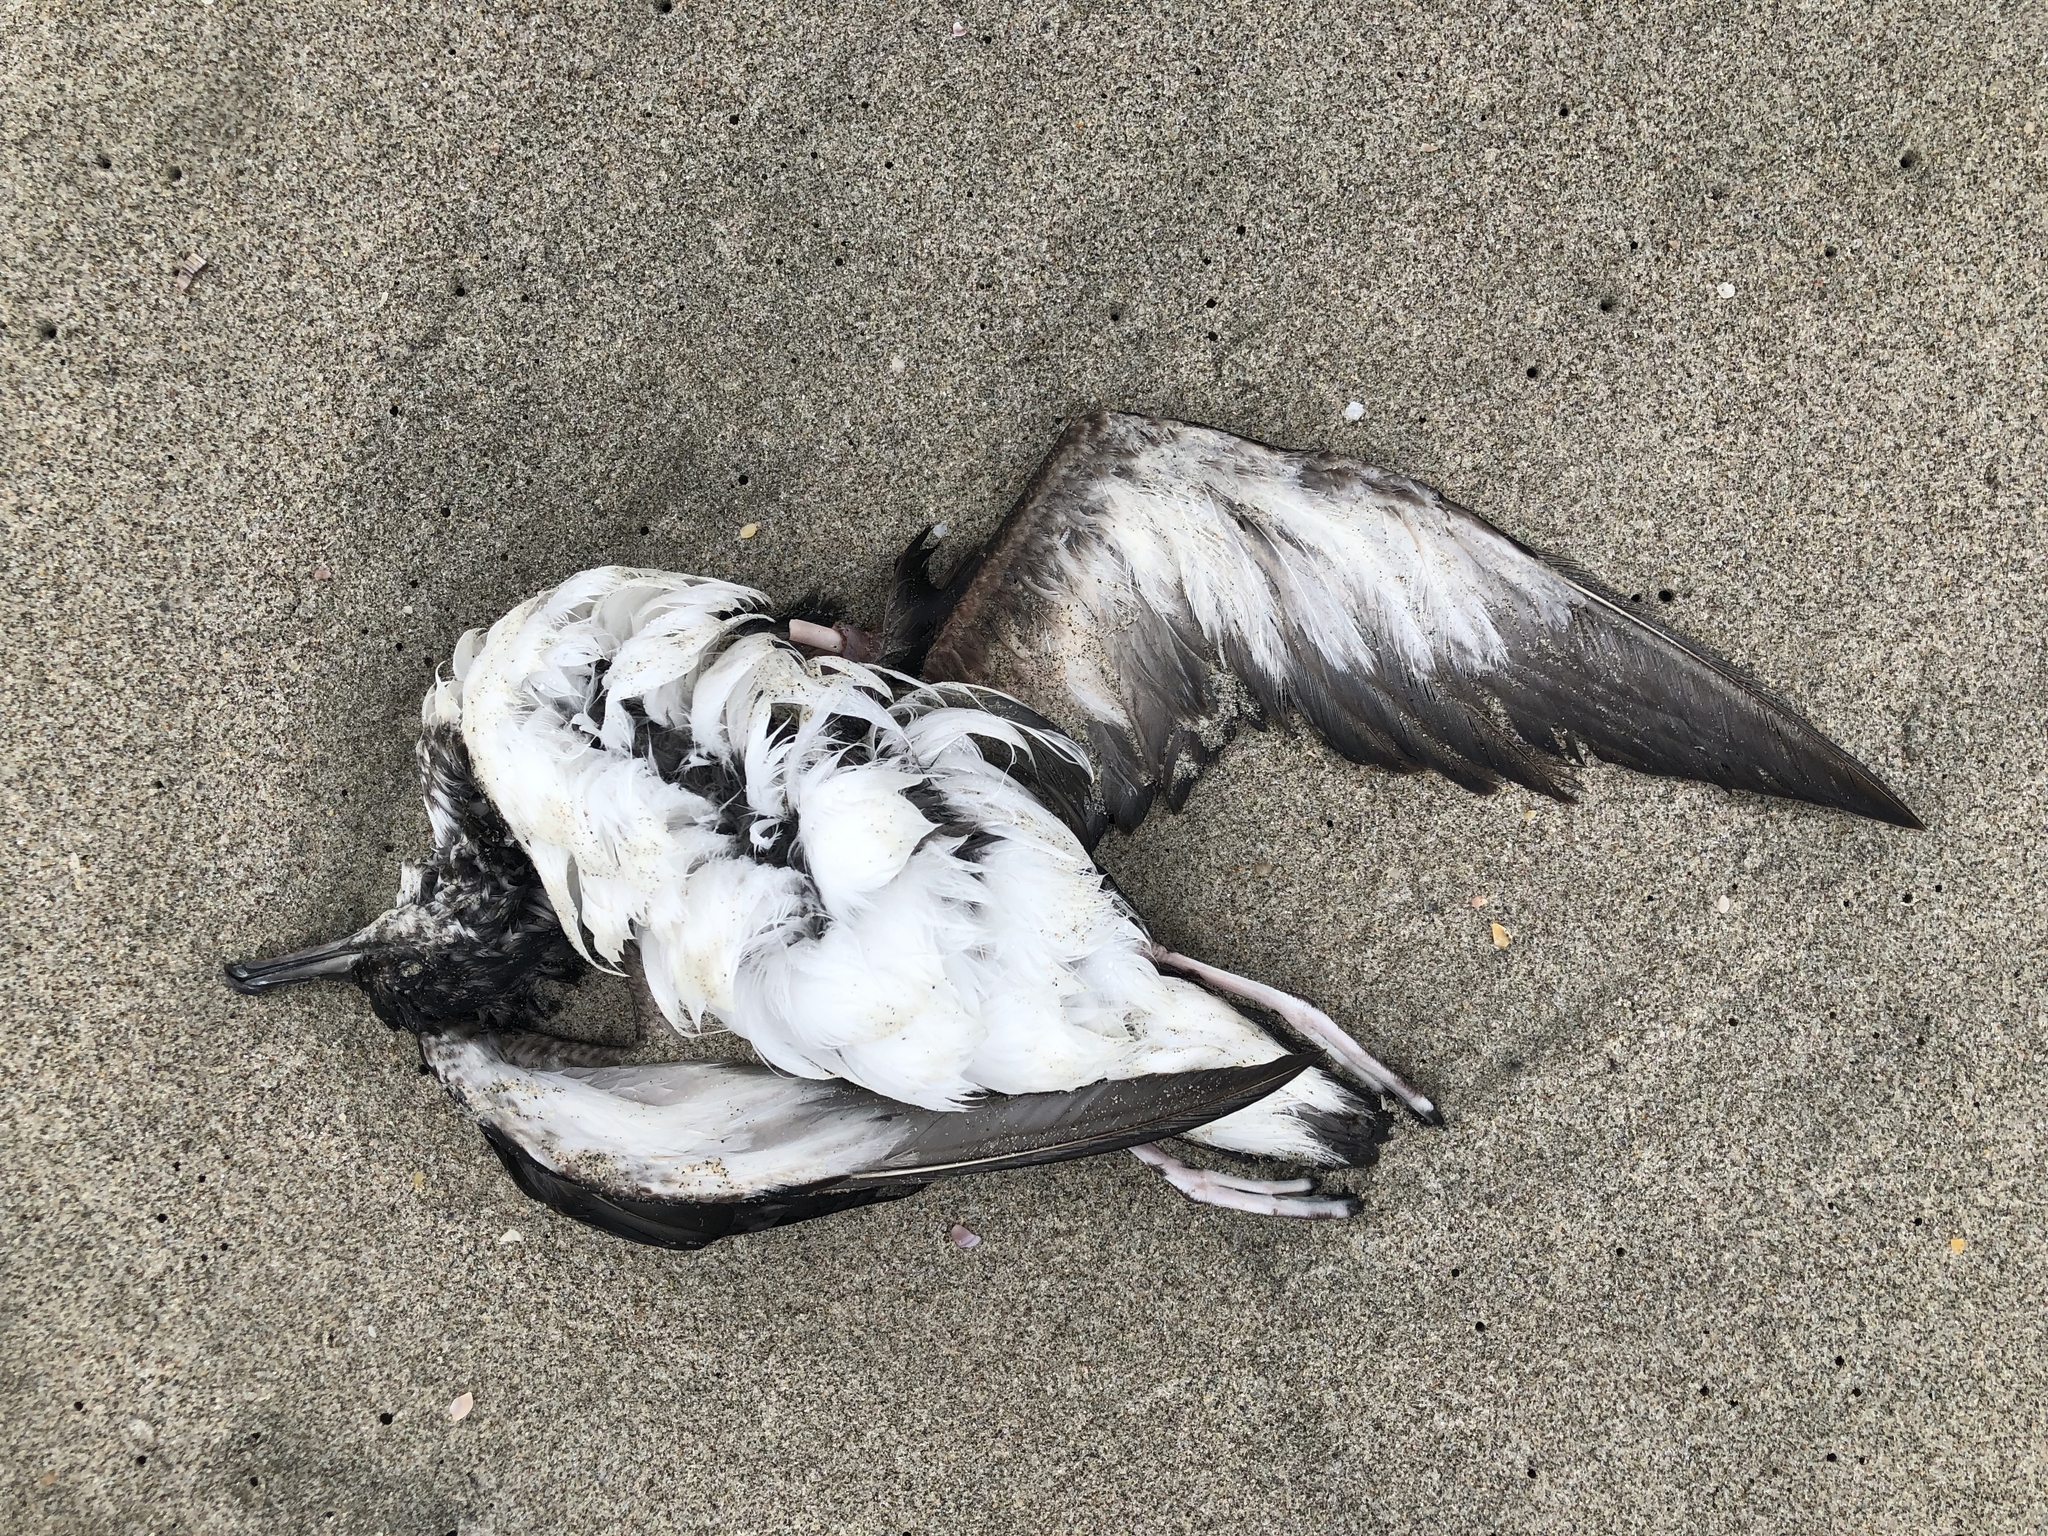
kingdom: Animalia
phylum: Chordata
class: Aves
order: Procellariiformes
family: Procellariidae
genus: Puffinus
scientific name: Puffinus gavia
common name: Fluttering shearwater
